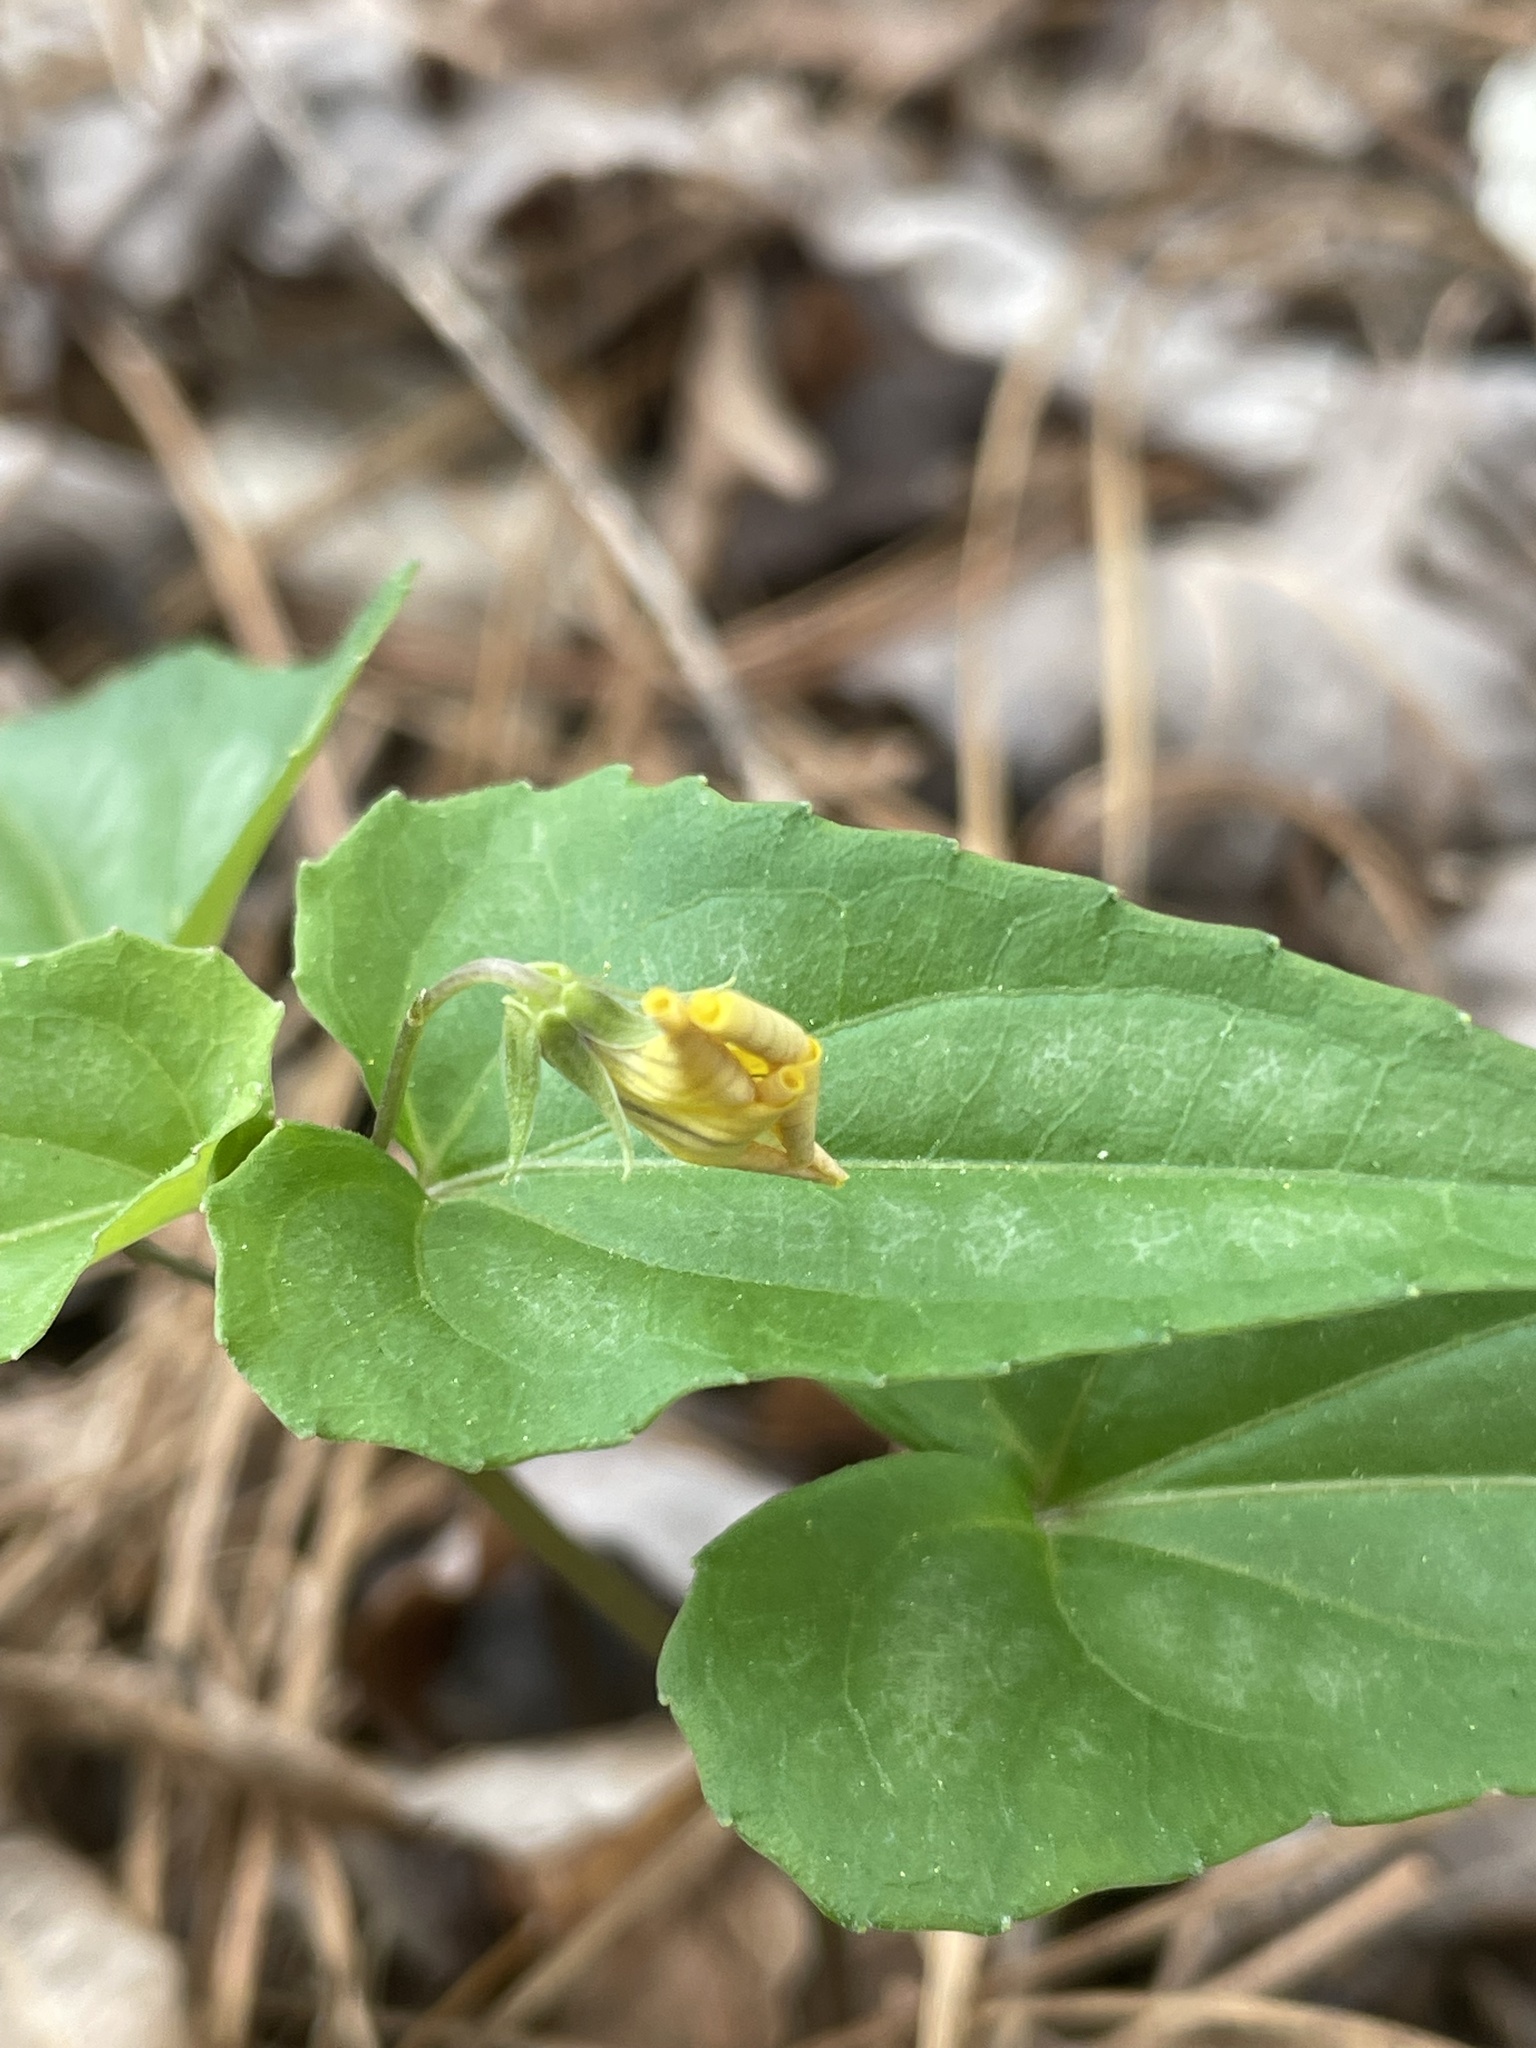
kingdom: Plantae
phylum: Tracheophyta
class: Magnoliopsida
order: Malpighiales
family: Violaceae
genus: Viola
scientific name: Viola hastata
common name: Spear-leaf violet
